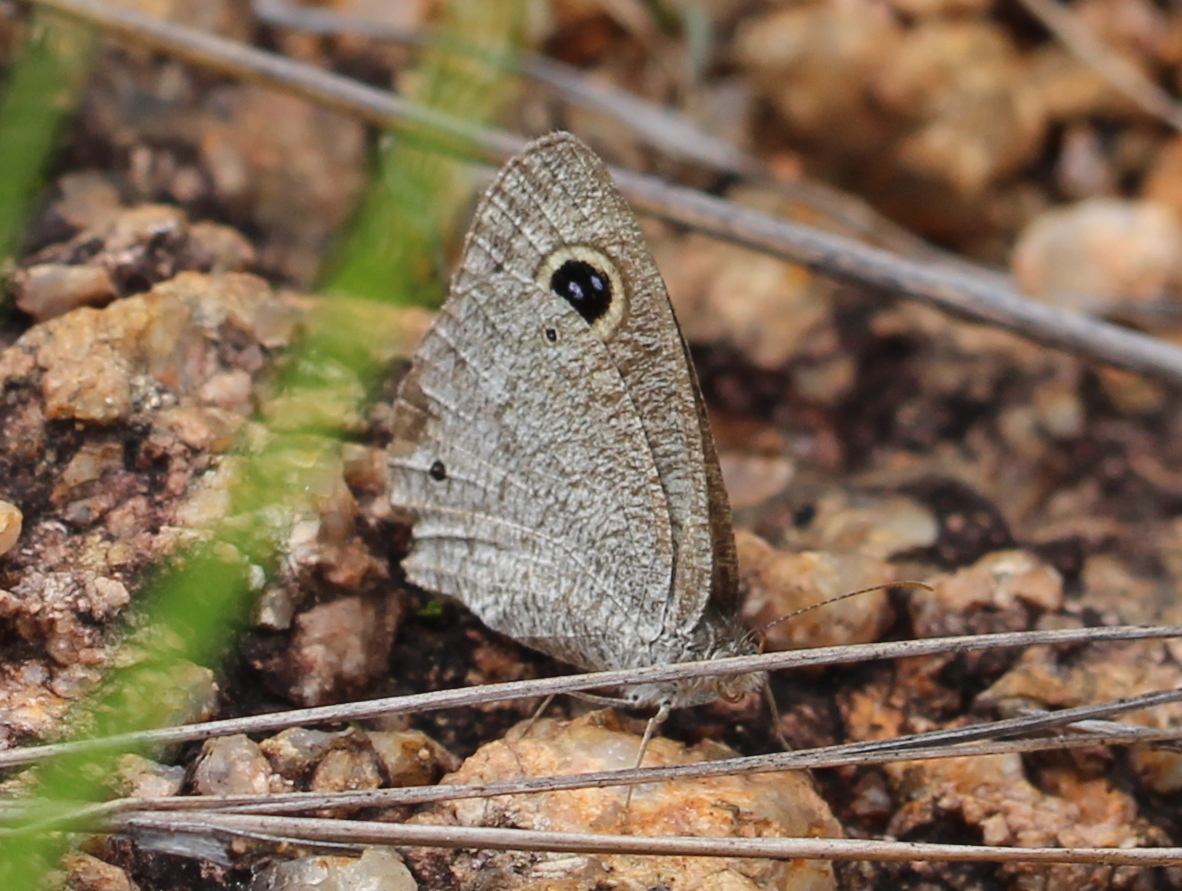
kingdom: Animalia
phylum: Arthropoda
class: Insecta
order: Lepidoptera
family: Nymphalidae
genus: Ypthima
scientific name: Ypthima asterope
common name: African ringlet
